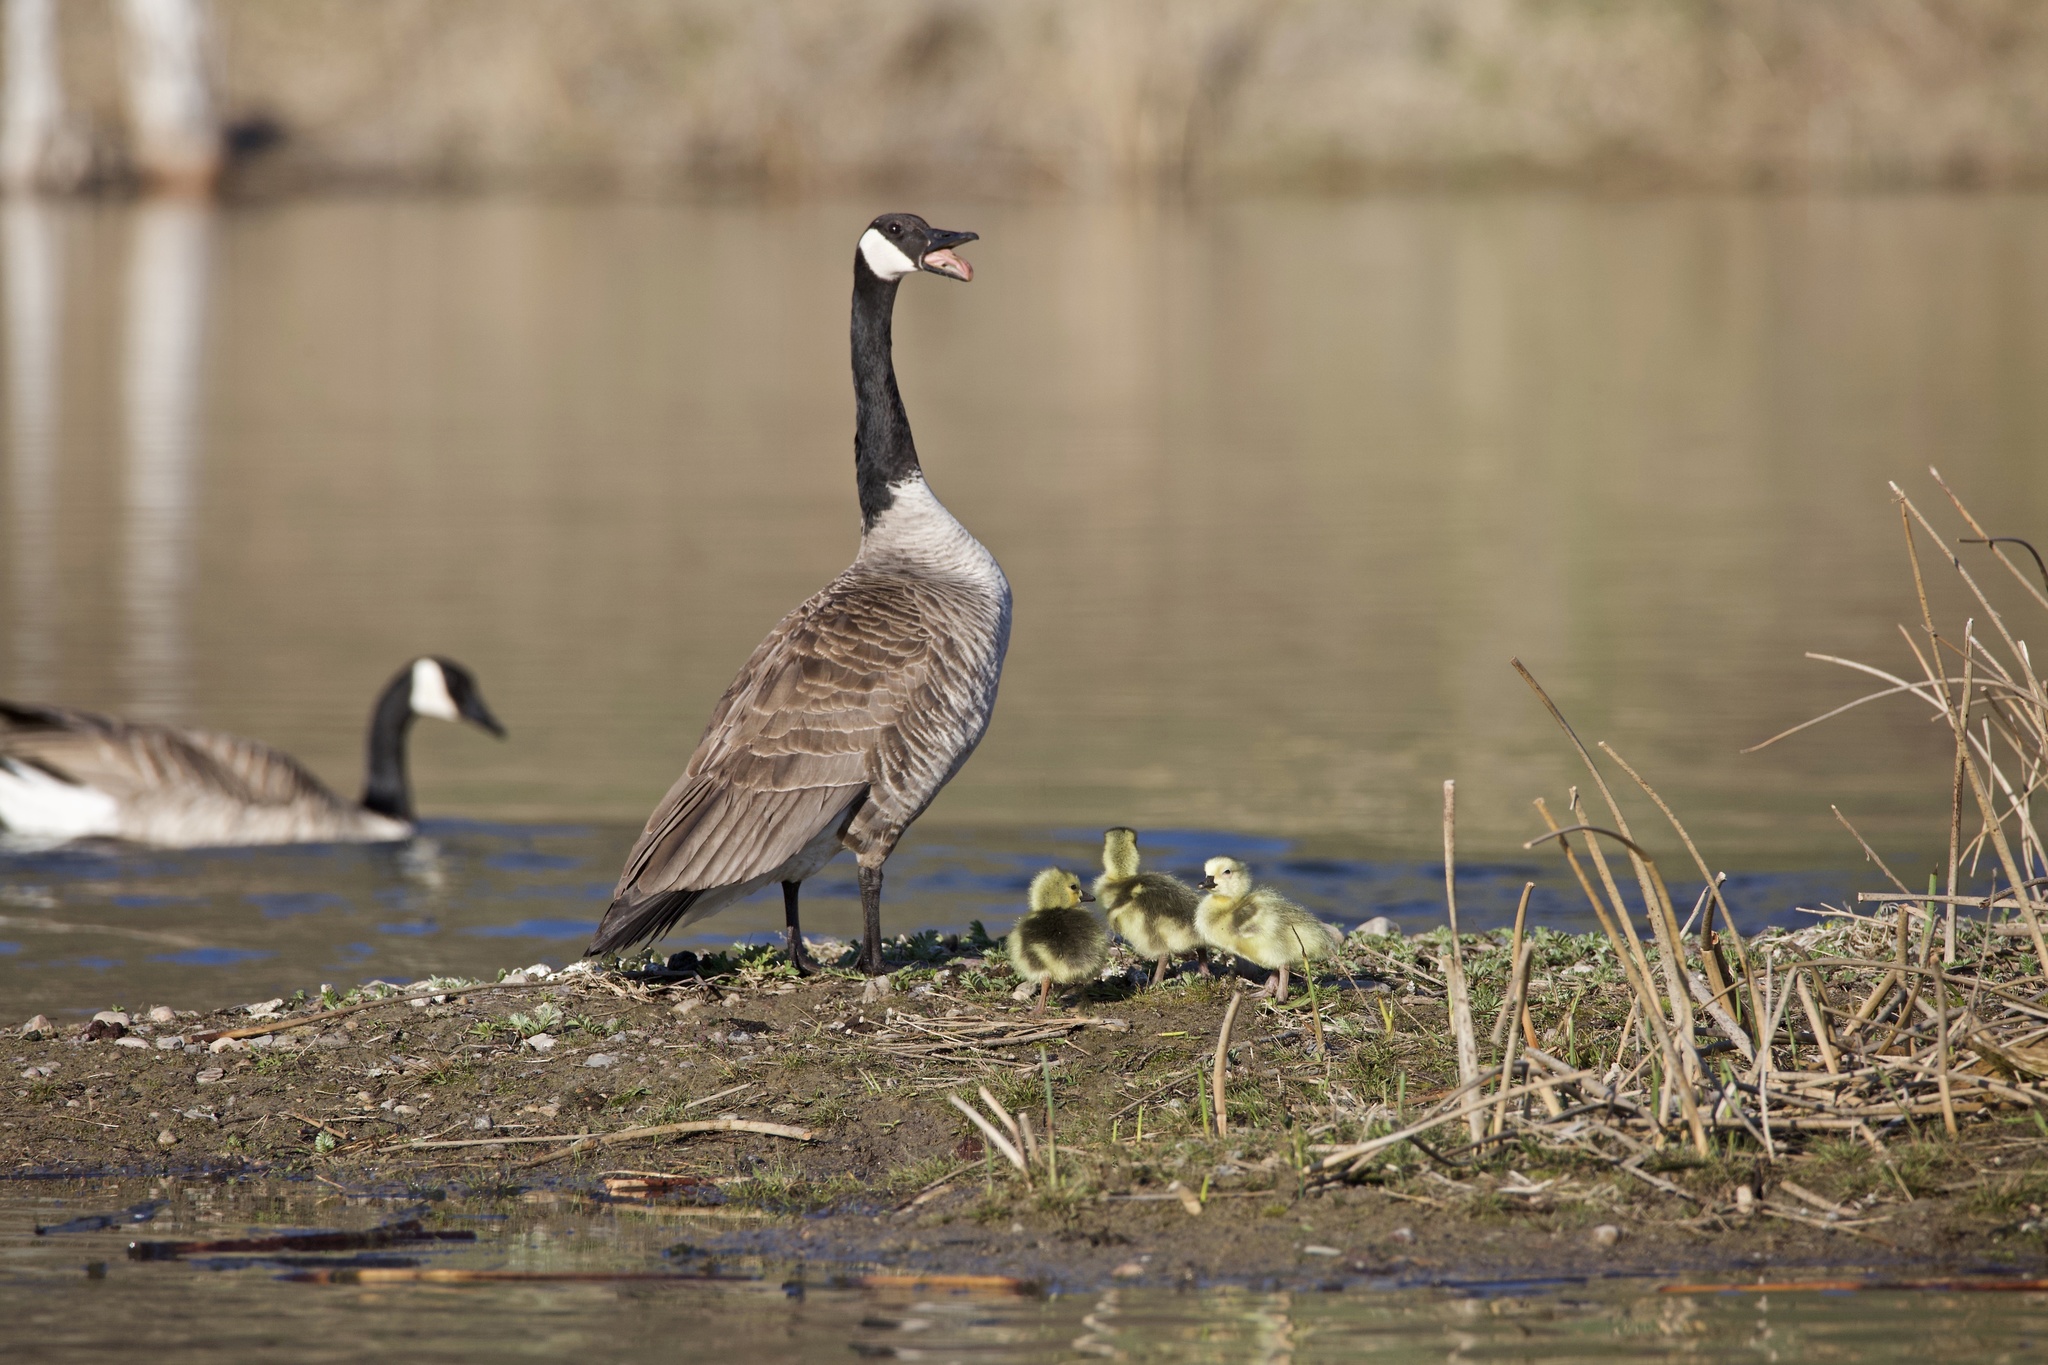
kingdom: Animalia
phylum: Chordata
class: Aves
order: Anseriformes
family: Anatidae
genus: Branta
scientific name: Branta canadensis
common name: Canada goose
